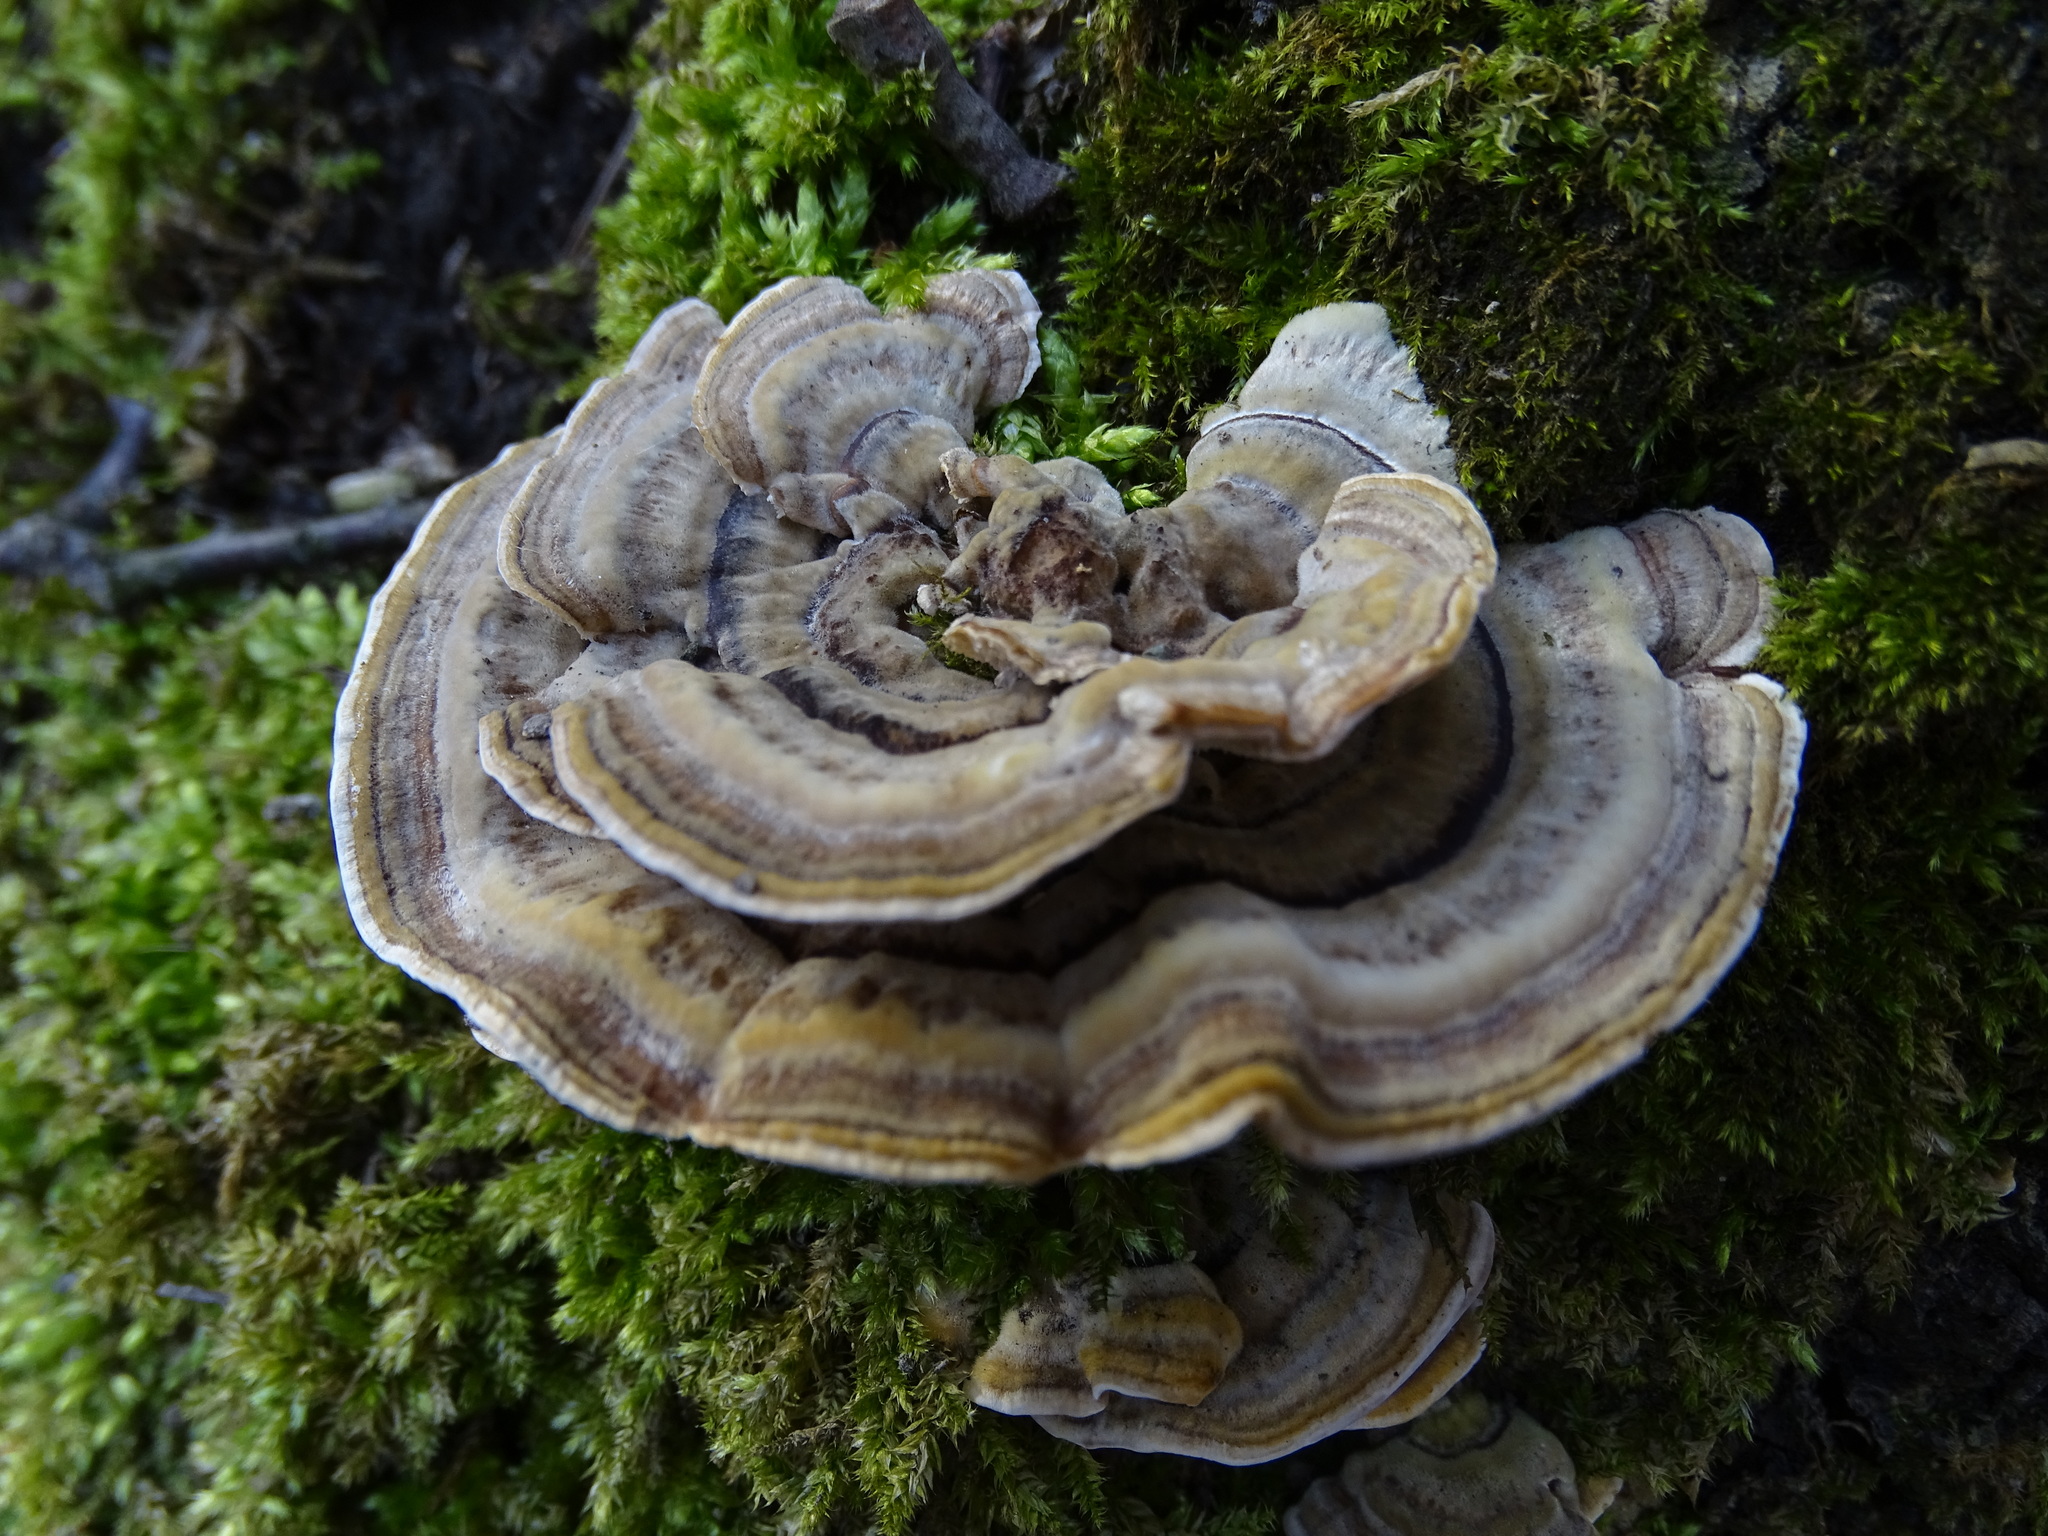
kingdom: Fungi
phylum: Basidiomycota
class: Agaricomycetes
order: Polyporales
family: Polyporaceae
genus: Trametes
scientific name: Trametes versicolor
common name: Turkeytail
